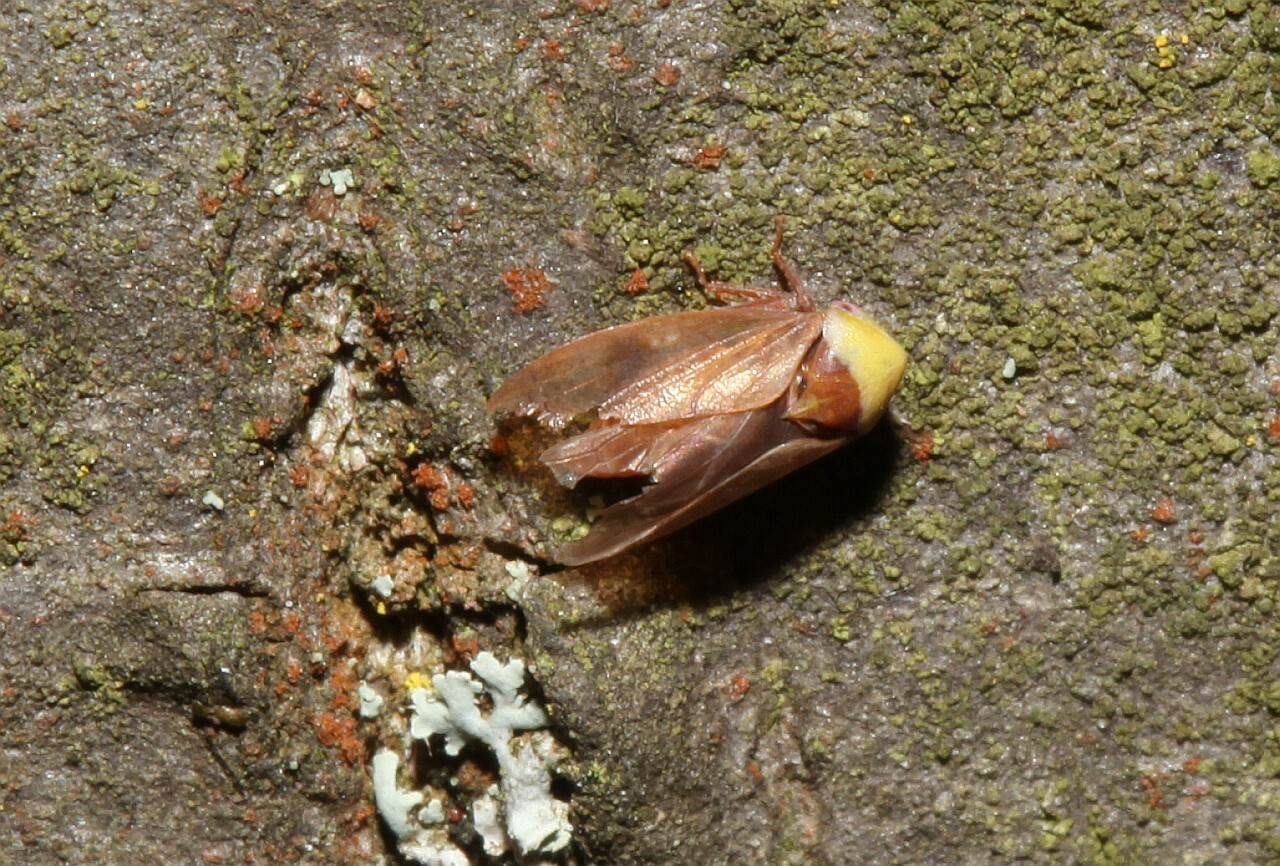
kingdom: Animalia
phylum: Arthropoda
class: Insecta
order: Hemiptera
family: Cicadellidae
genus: Pediopsis
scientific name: Pediopsis tiliae
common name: Leafhopper
